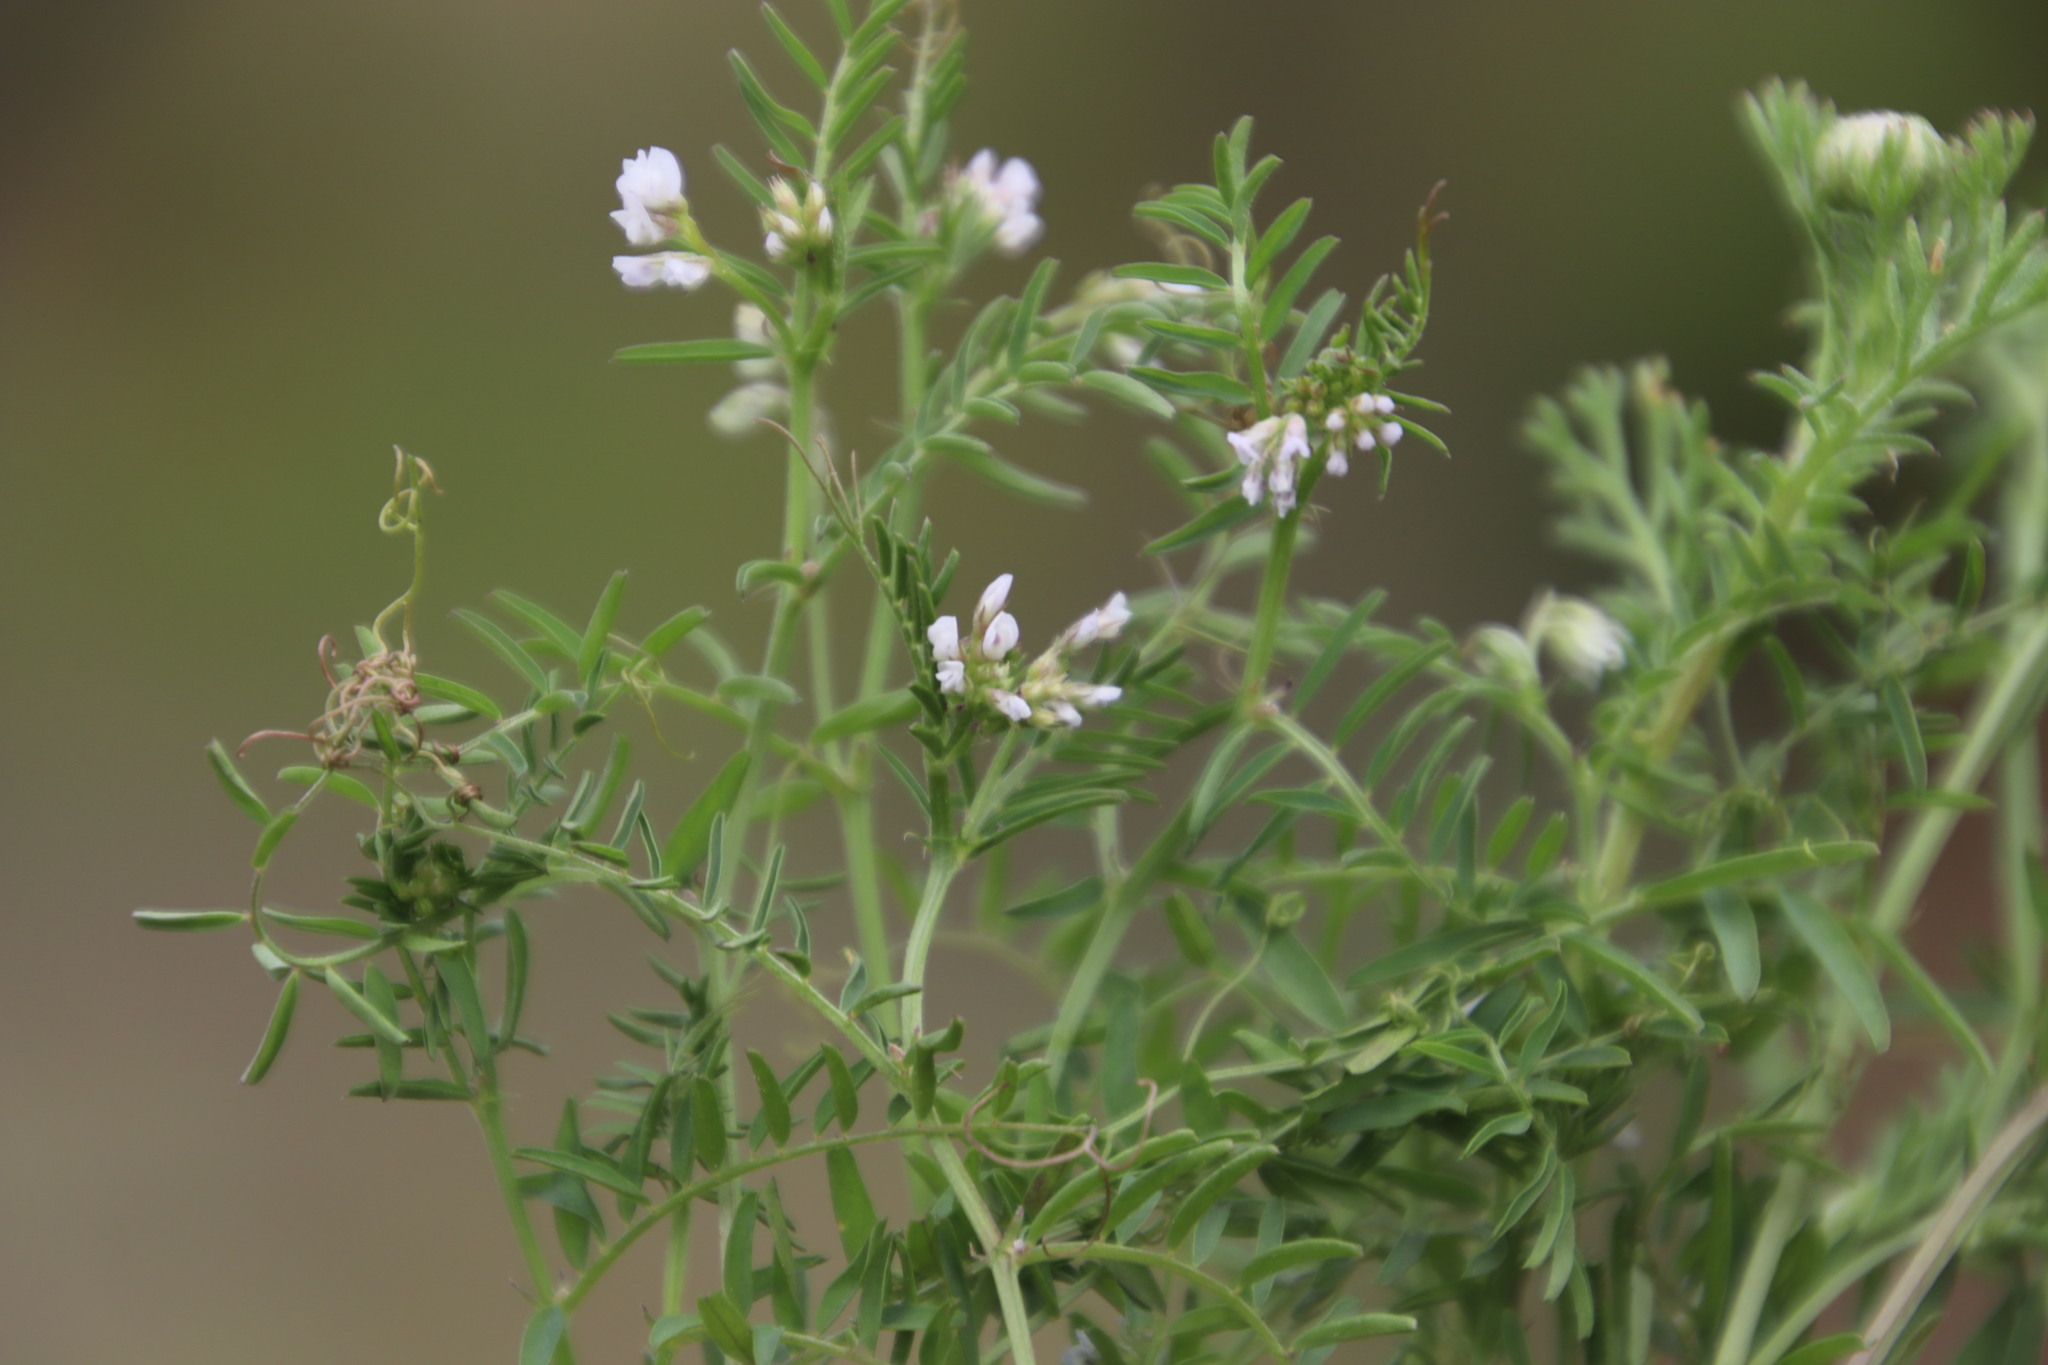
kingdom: Plantae
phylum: Tracheophyta
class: Magnoliopsida
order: Fabales
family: Fabaceae
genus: Vicia
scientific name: Vicia hirsuta
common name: Tiny vetch
